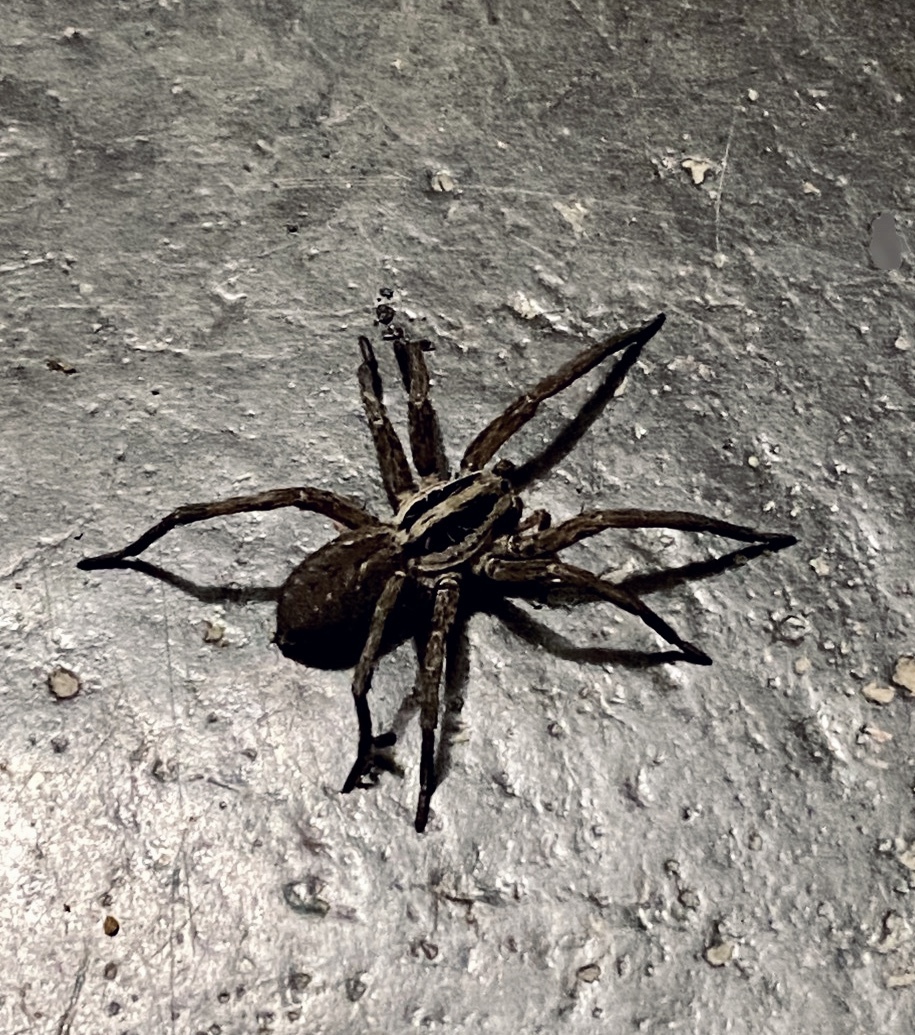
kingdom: Animalia
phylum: Arthropoda
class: Arachnida
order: Araneae
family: Lycosidae
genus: Hogna
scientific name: Hogna radiata
